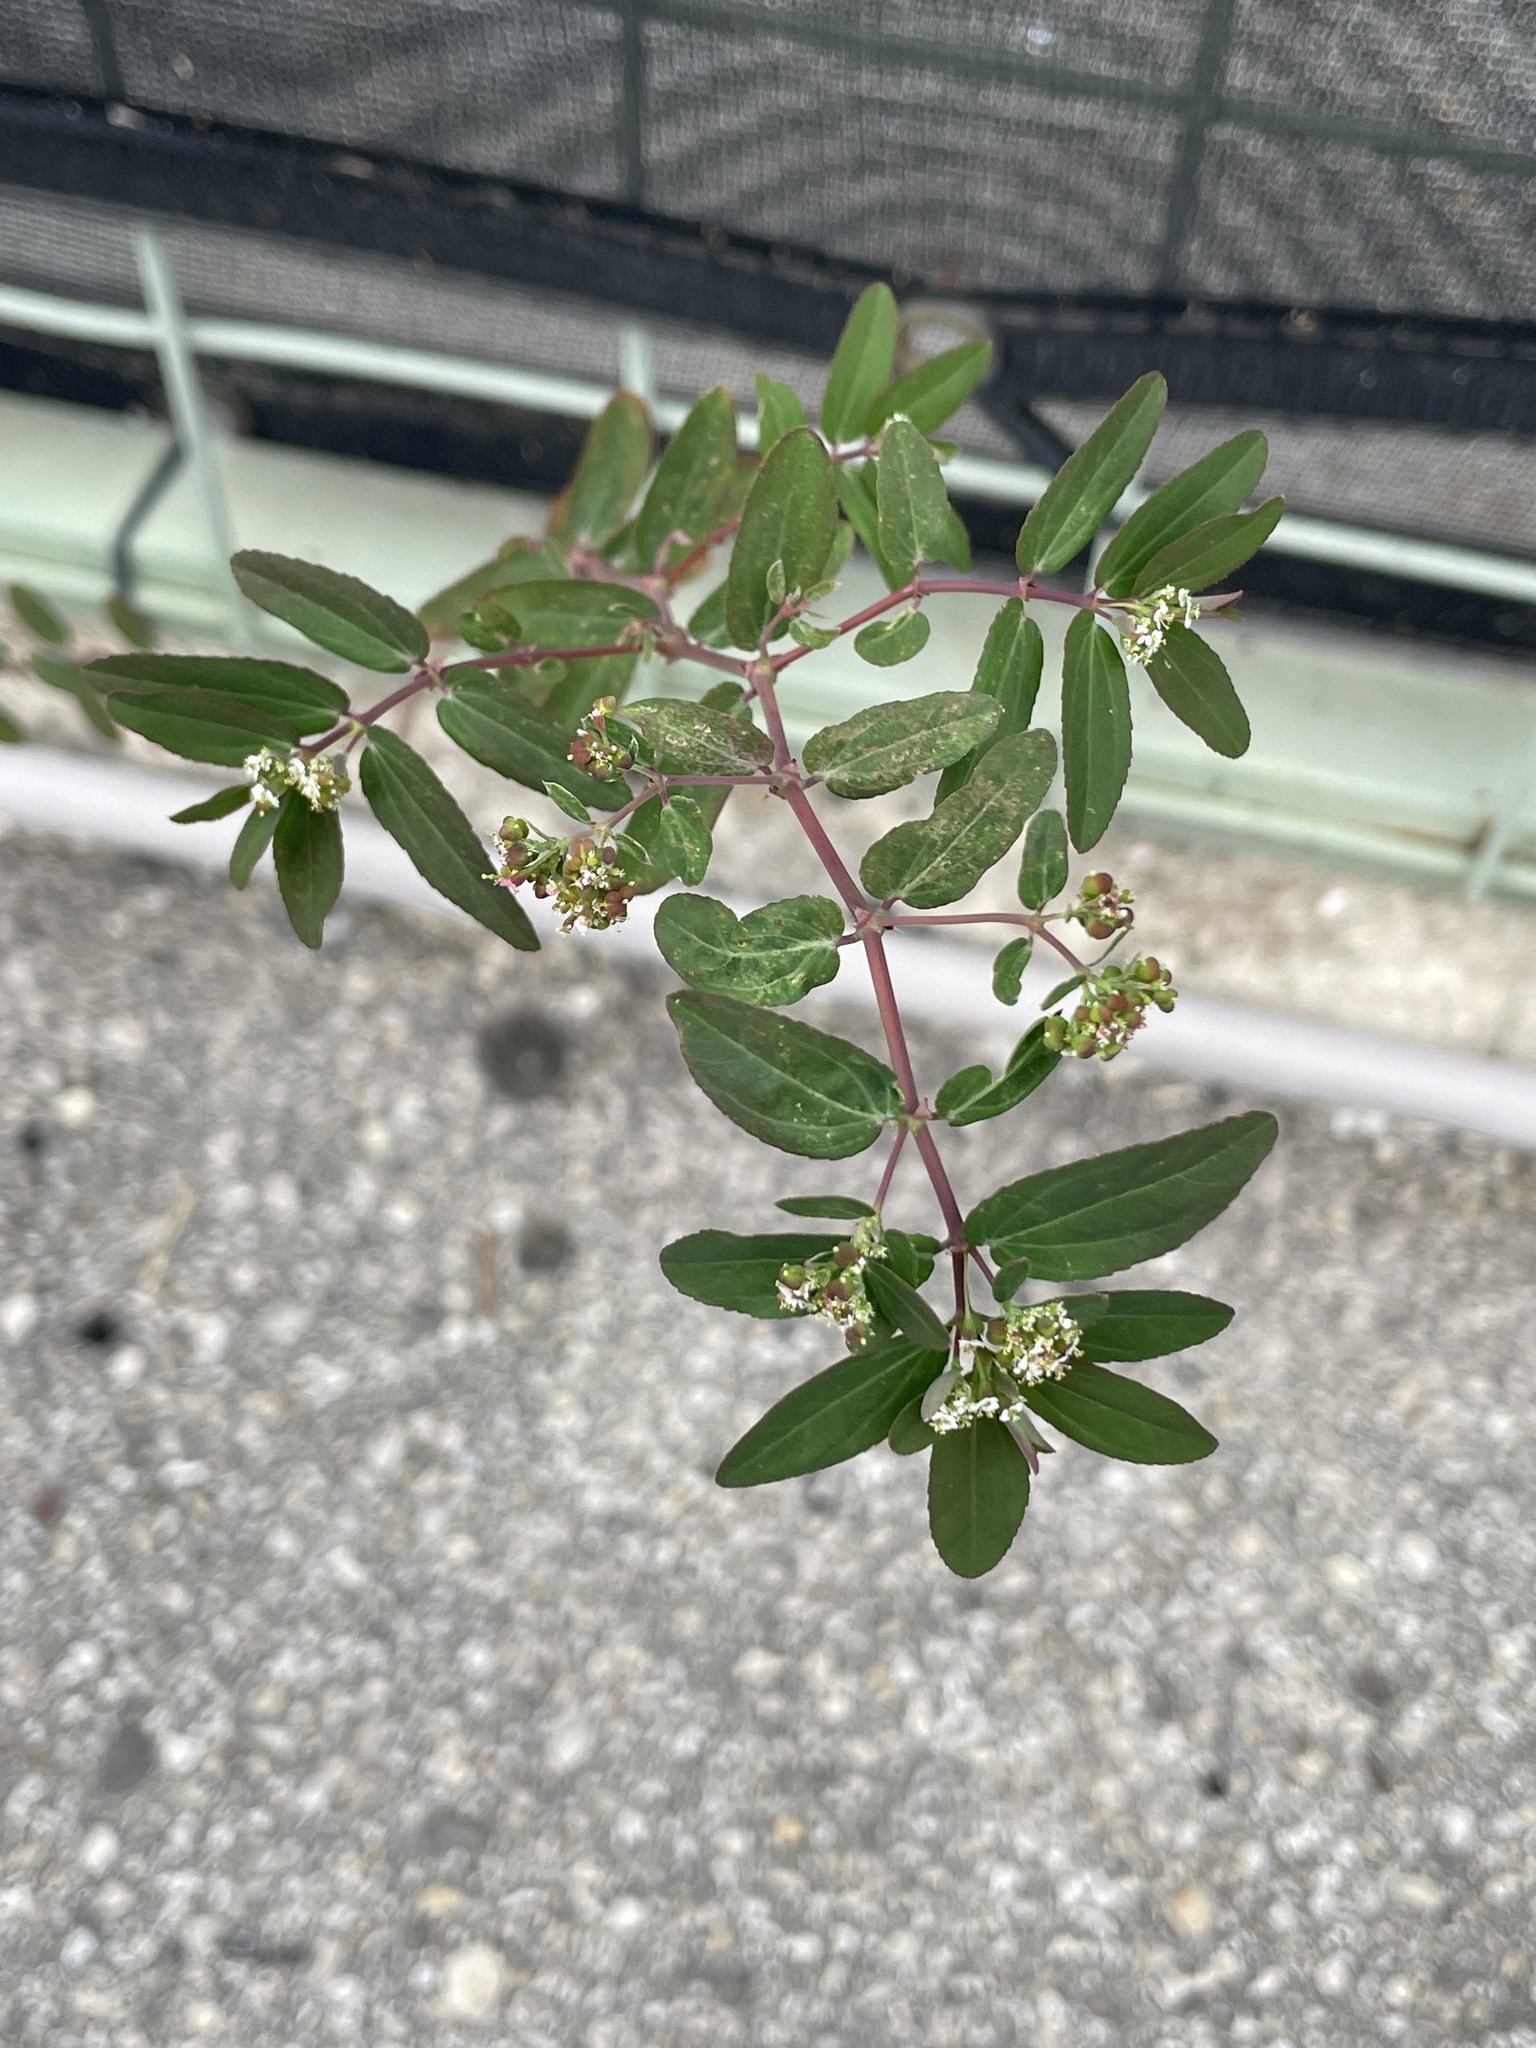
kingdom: Plantae
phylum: Tracheophyta
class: Magnoliopsida
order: Malpighiales
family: Euphorbiaceae
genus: Euphorbia
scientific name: Euphorbia hypericifolia
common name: Graceful sandmat
